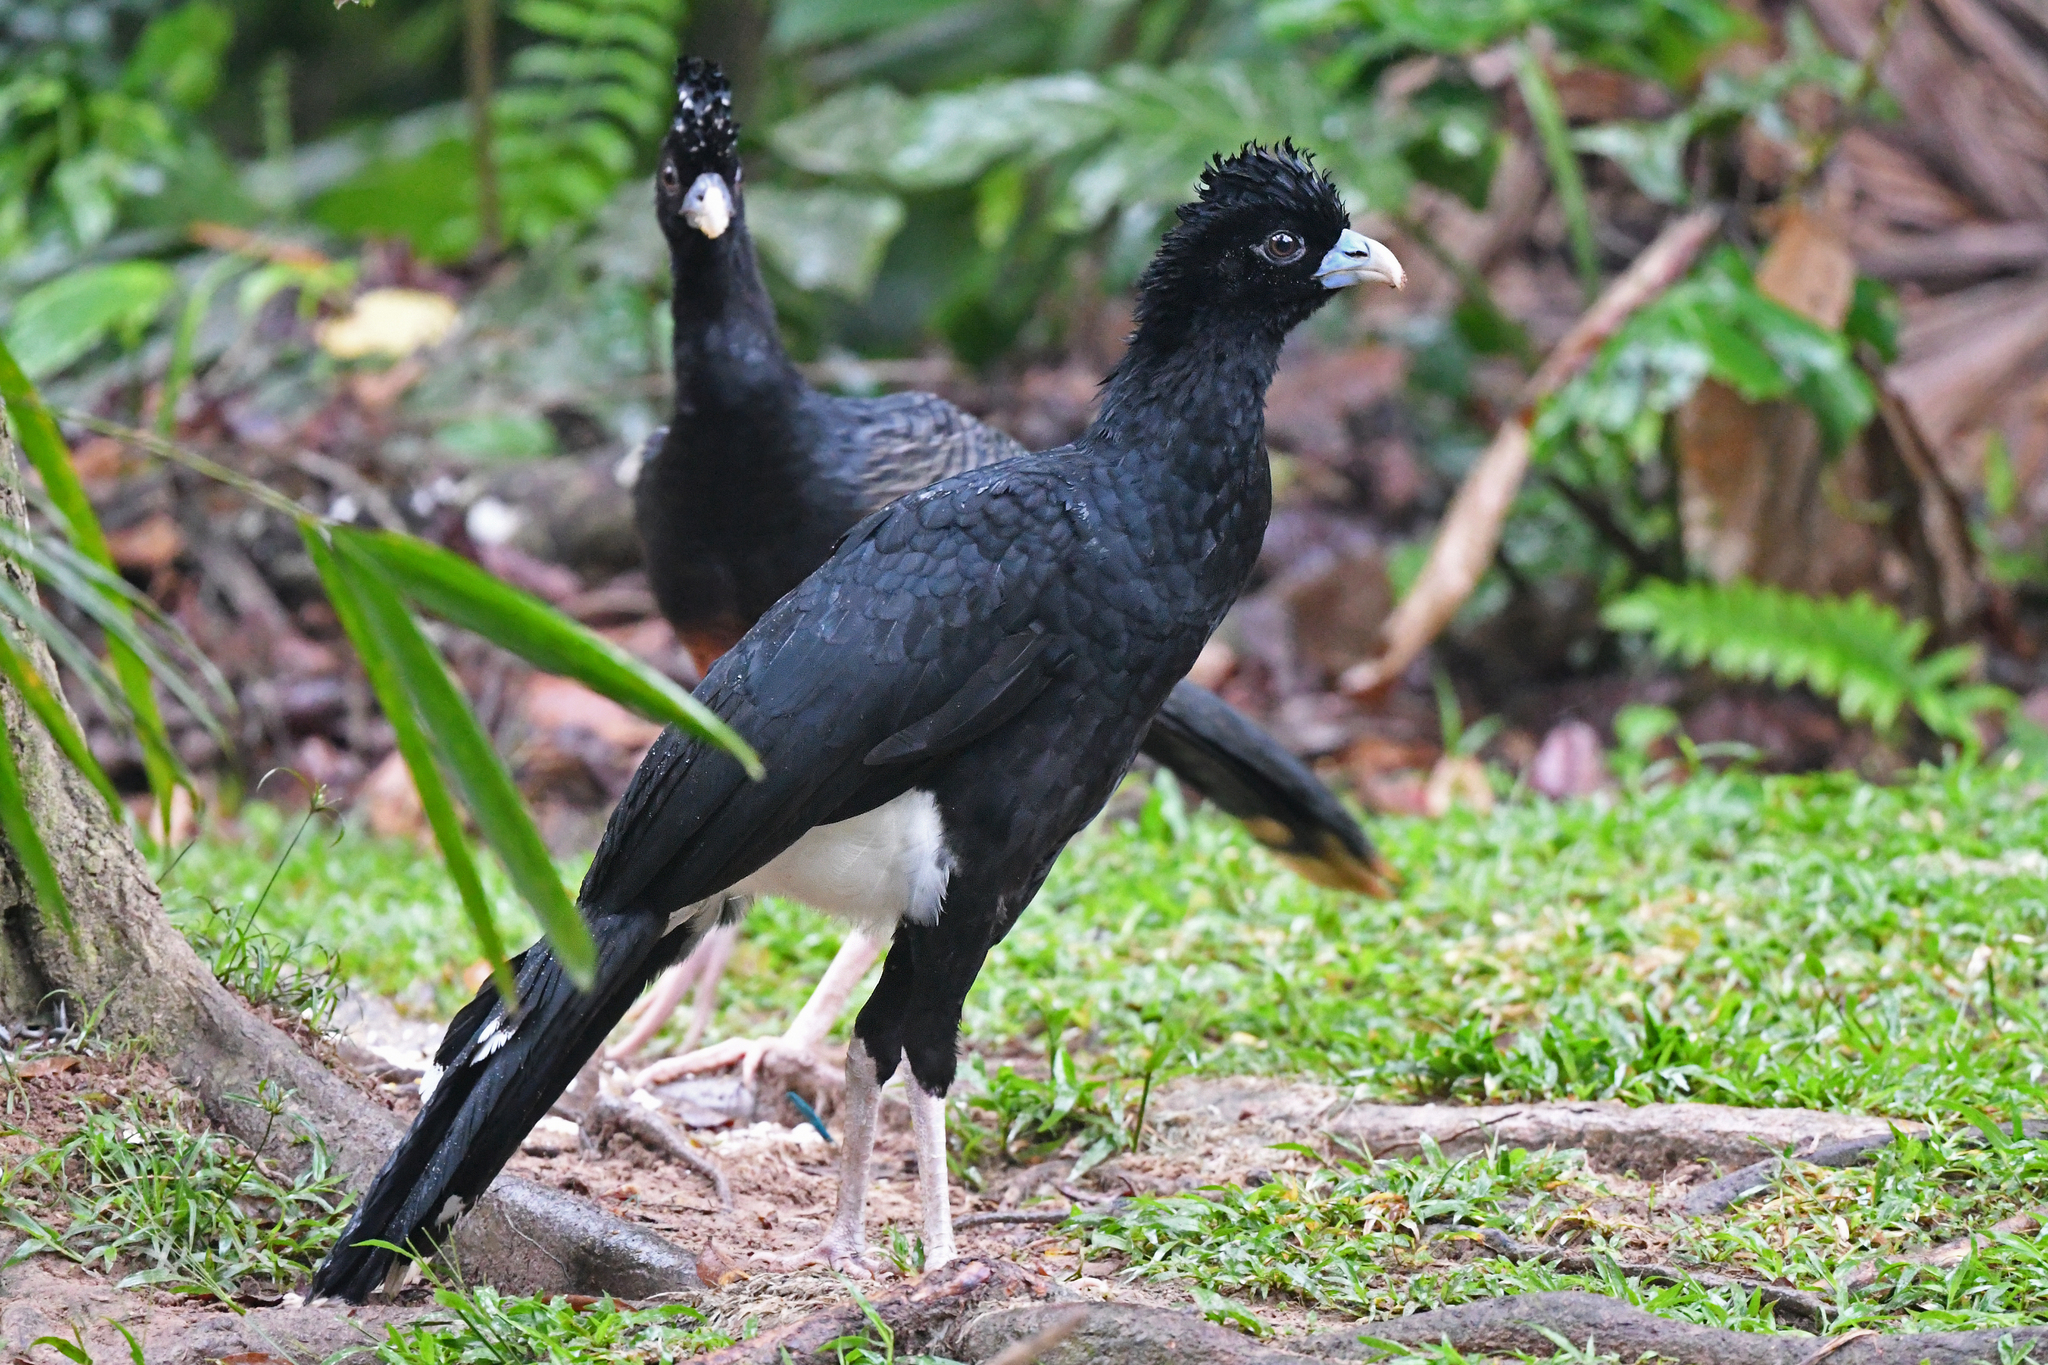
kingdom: Animalia
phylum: Chordata
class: Aves
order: Galliformes
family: Cracidae
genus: Crax
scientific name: Crax alberti
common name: Blue-billed curassow
